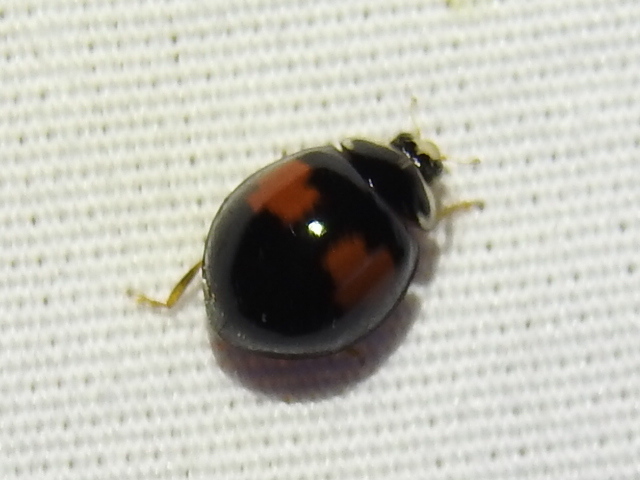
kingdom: Animalia
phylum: Arthropoda
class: Insecta
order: Coleoptera
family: Coccinellidae
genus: Olla
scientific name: Olla v-nigrum
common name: Ashy gray lady beetle
